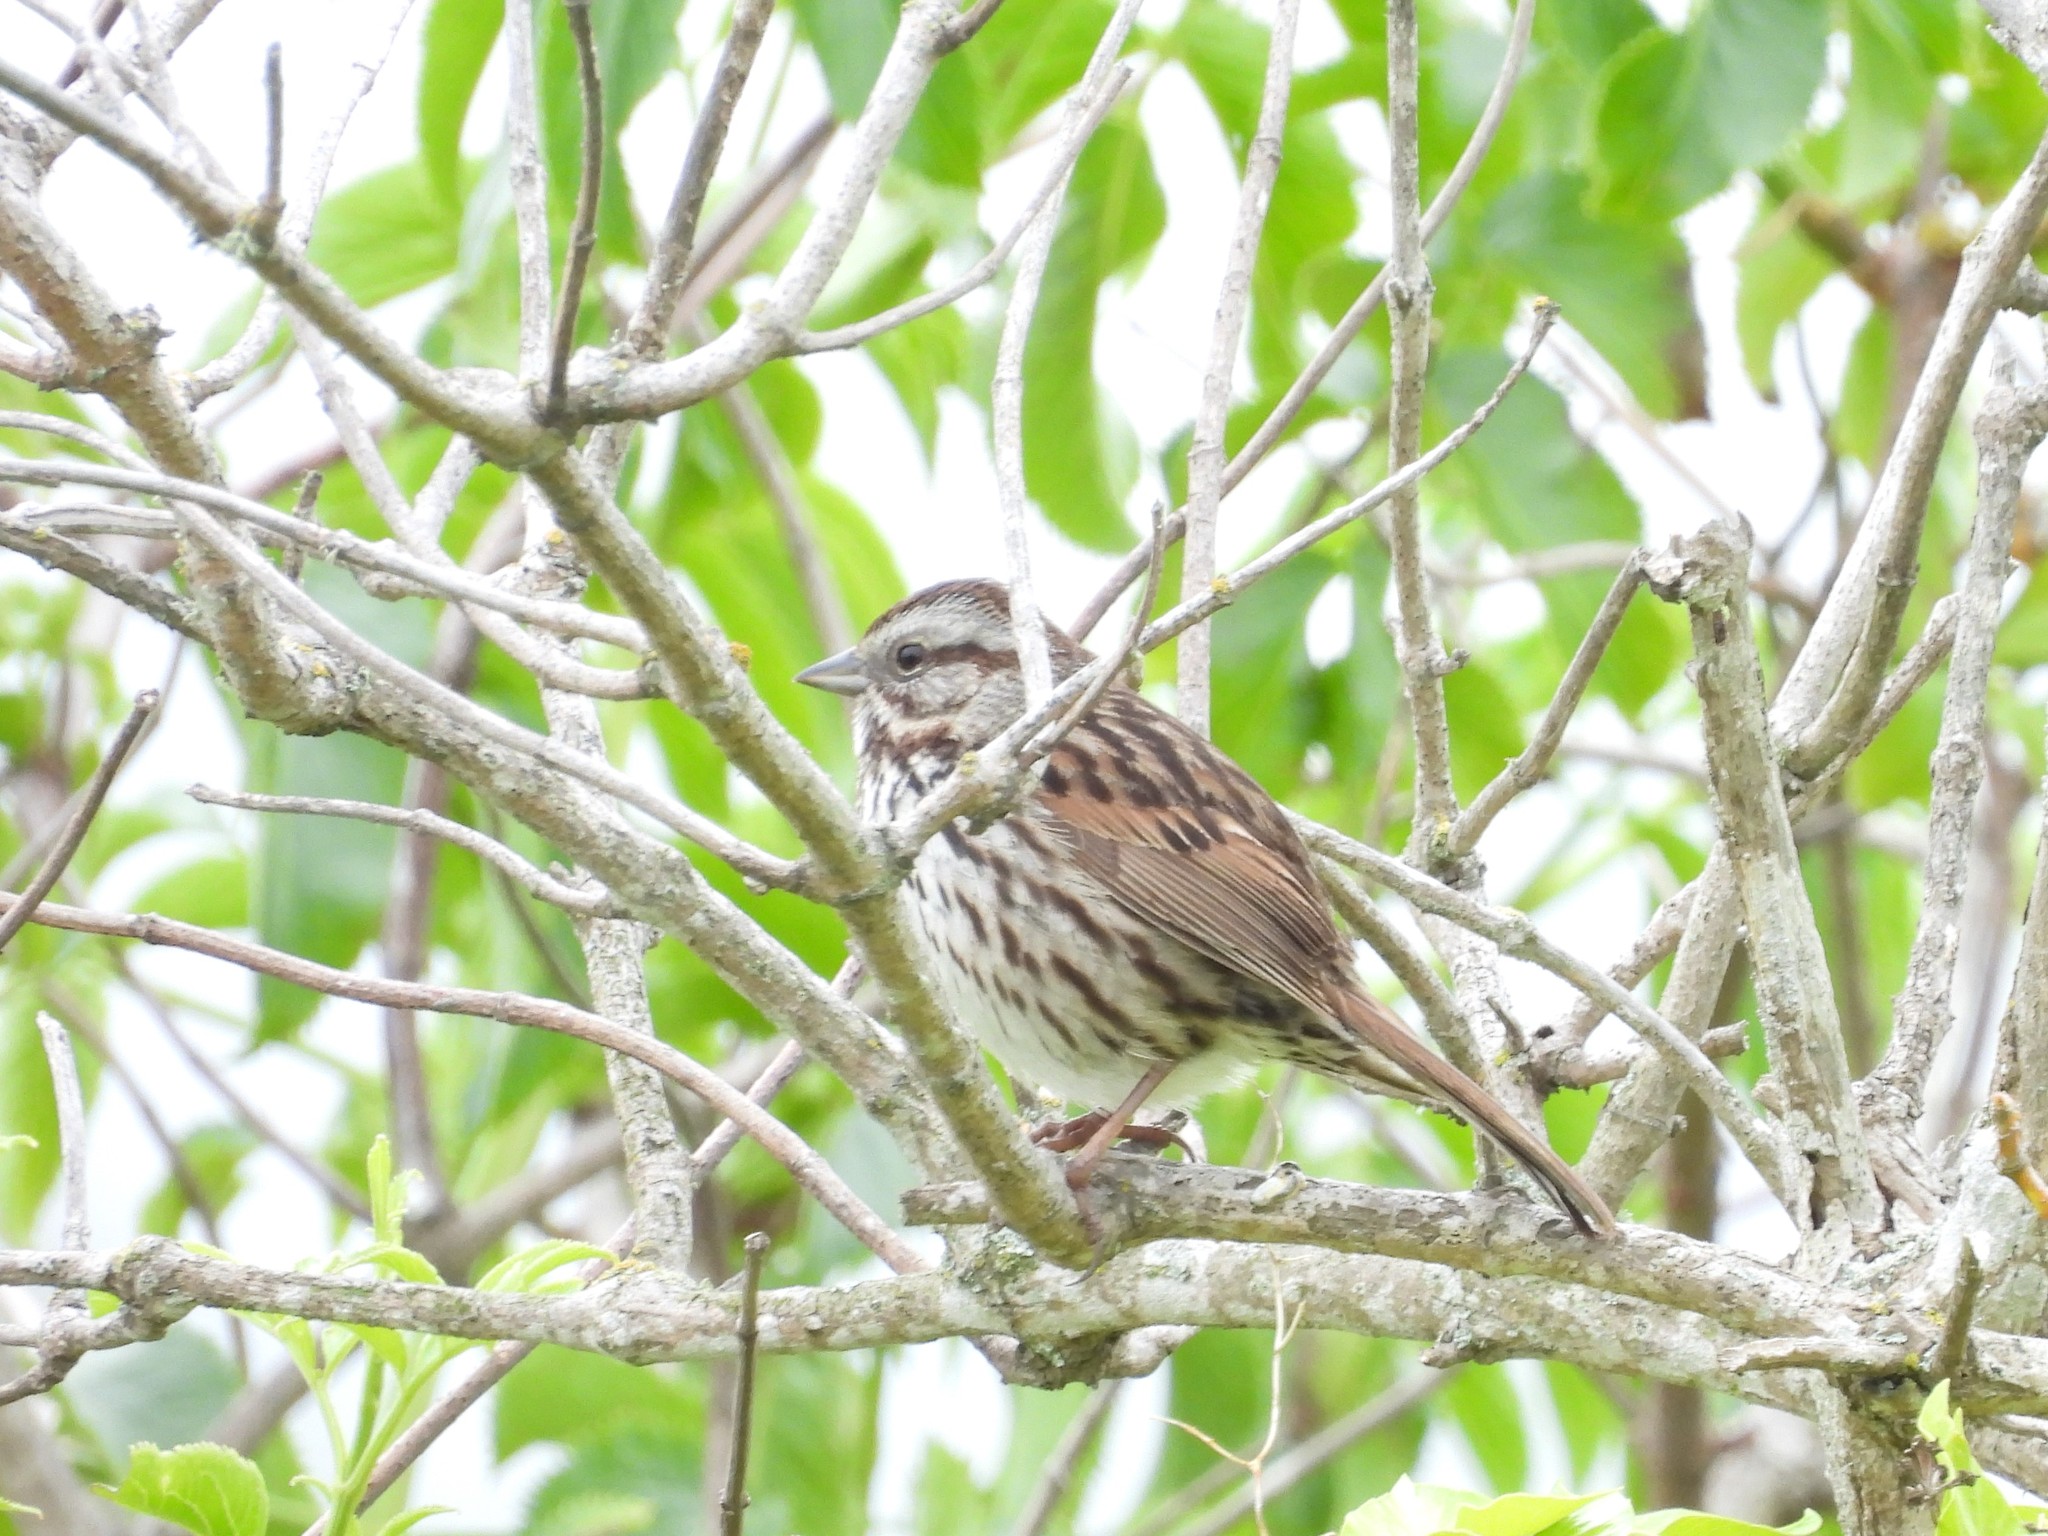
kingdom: Animalia
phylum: Chordata
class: Aves
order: Passeriformes
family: Passerellidae
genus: Melospiza
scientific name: Melospiza melodia
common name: Song sparrow
